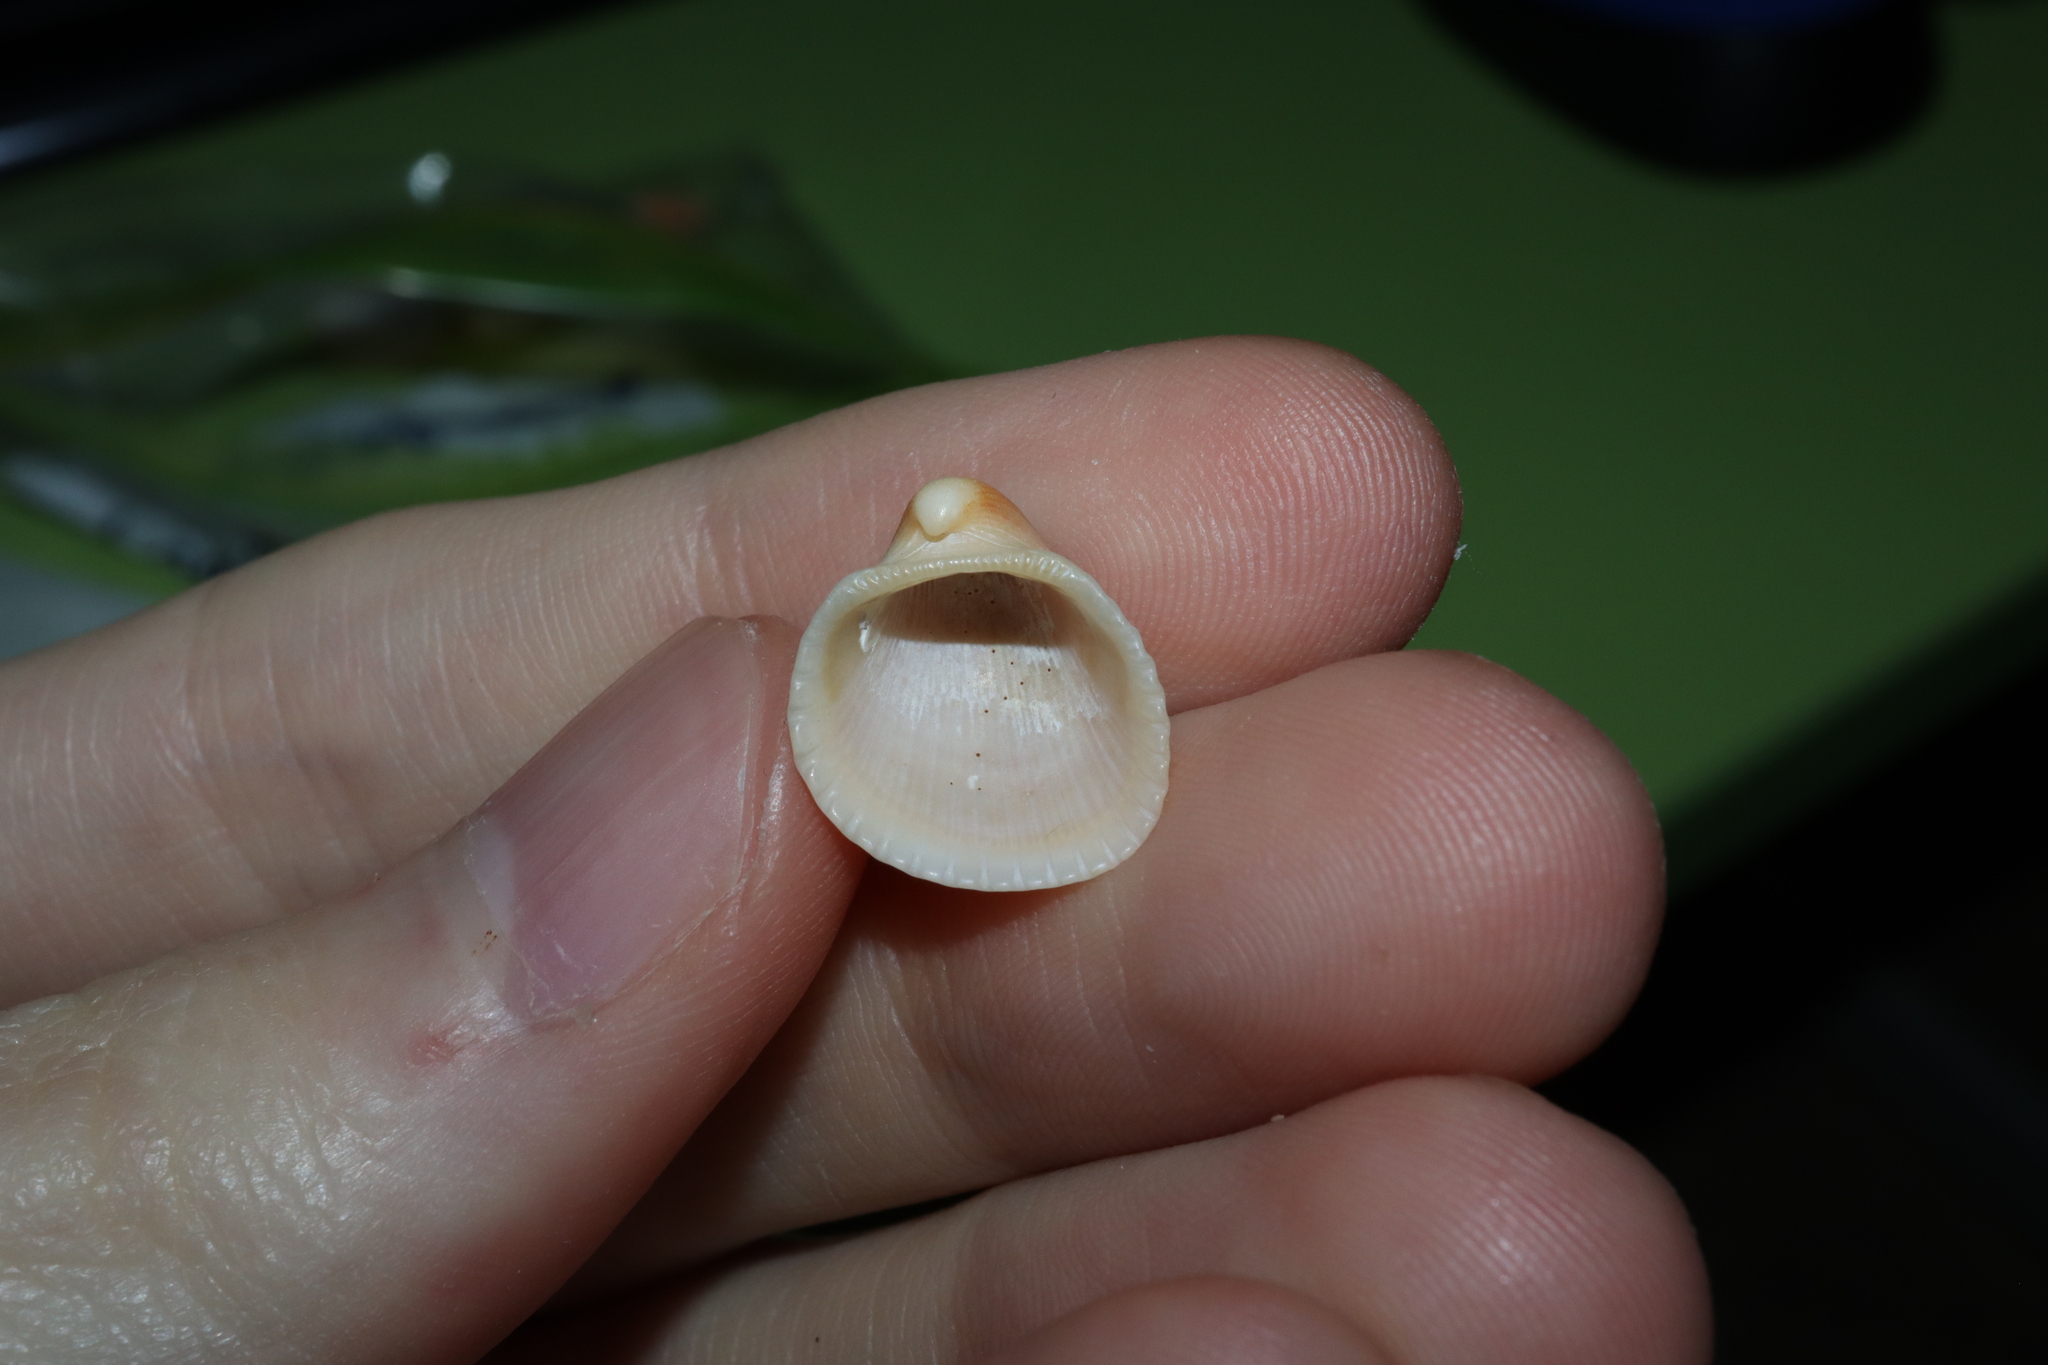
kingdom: Animalia
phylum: Mollusca
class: Bivalvia
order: Arcida
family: Arcidae
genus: Anadara
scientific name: Anadara pilula
